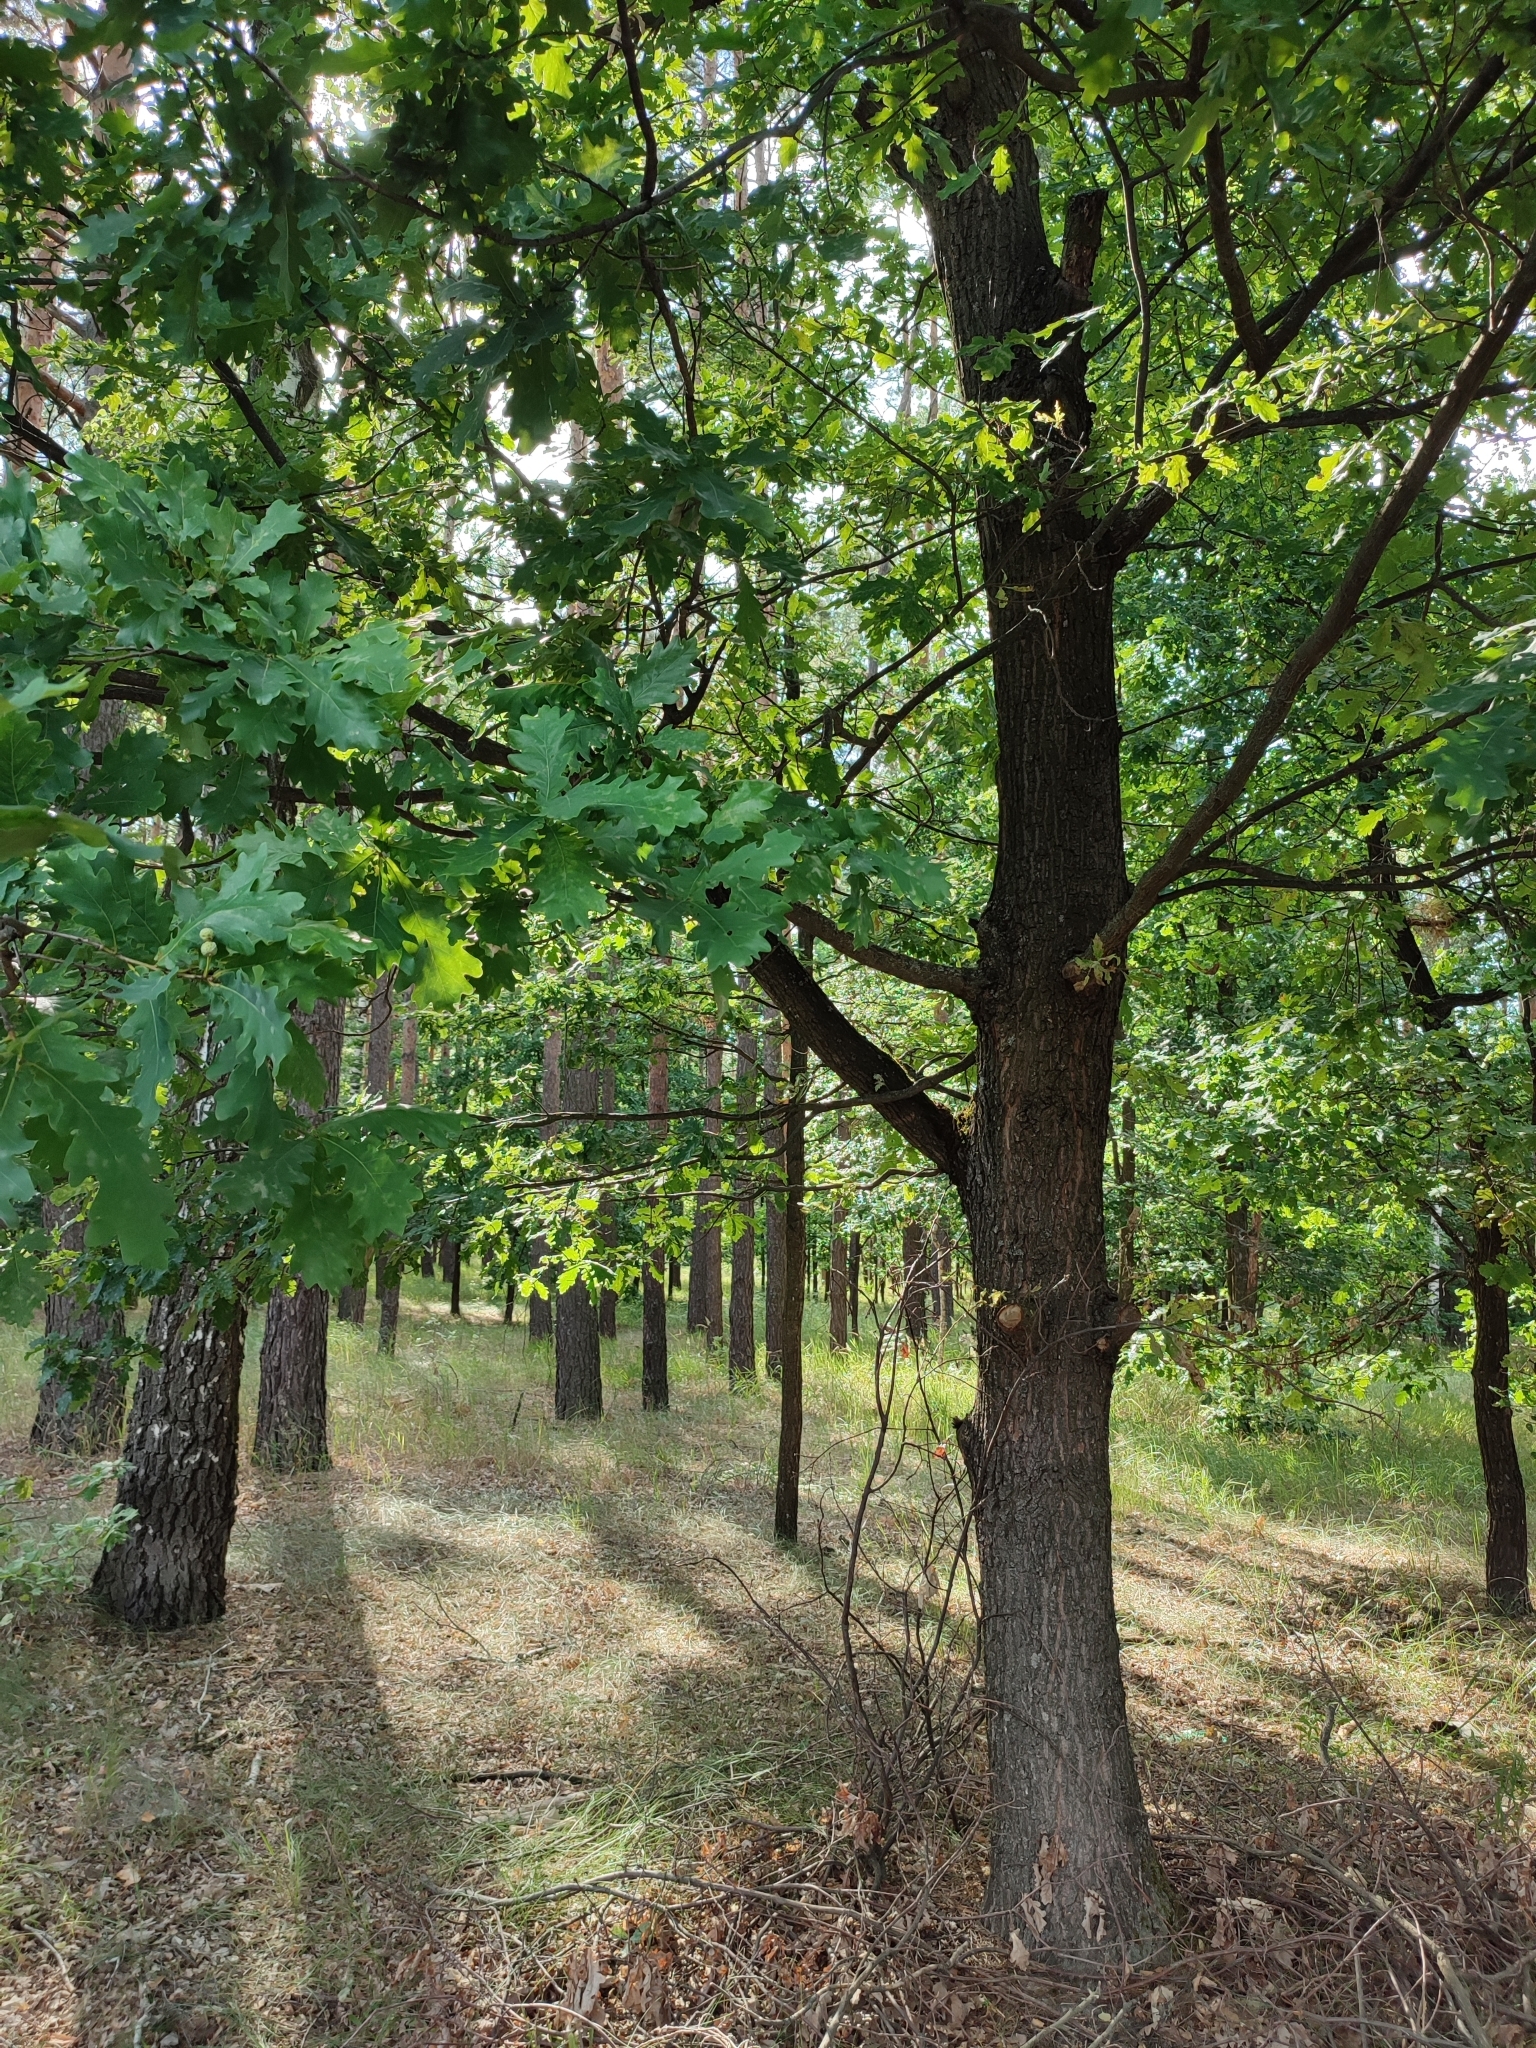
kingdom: Plantae
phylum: Tracheophyta
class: Magnoliopsida
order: Fagales
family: Fagaceae
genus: Quercus
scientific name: Quercus robur
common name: Pedunculate oak
